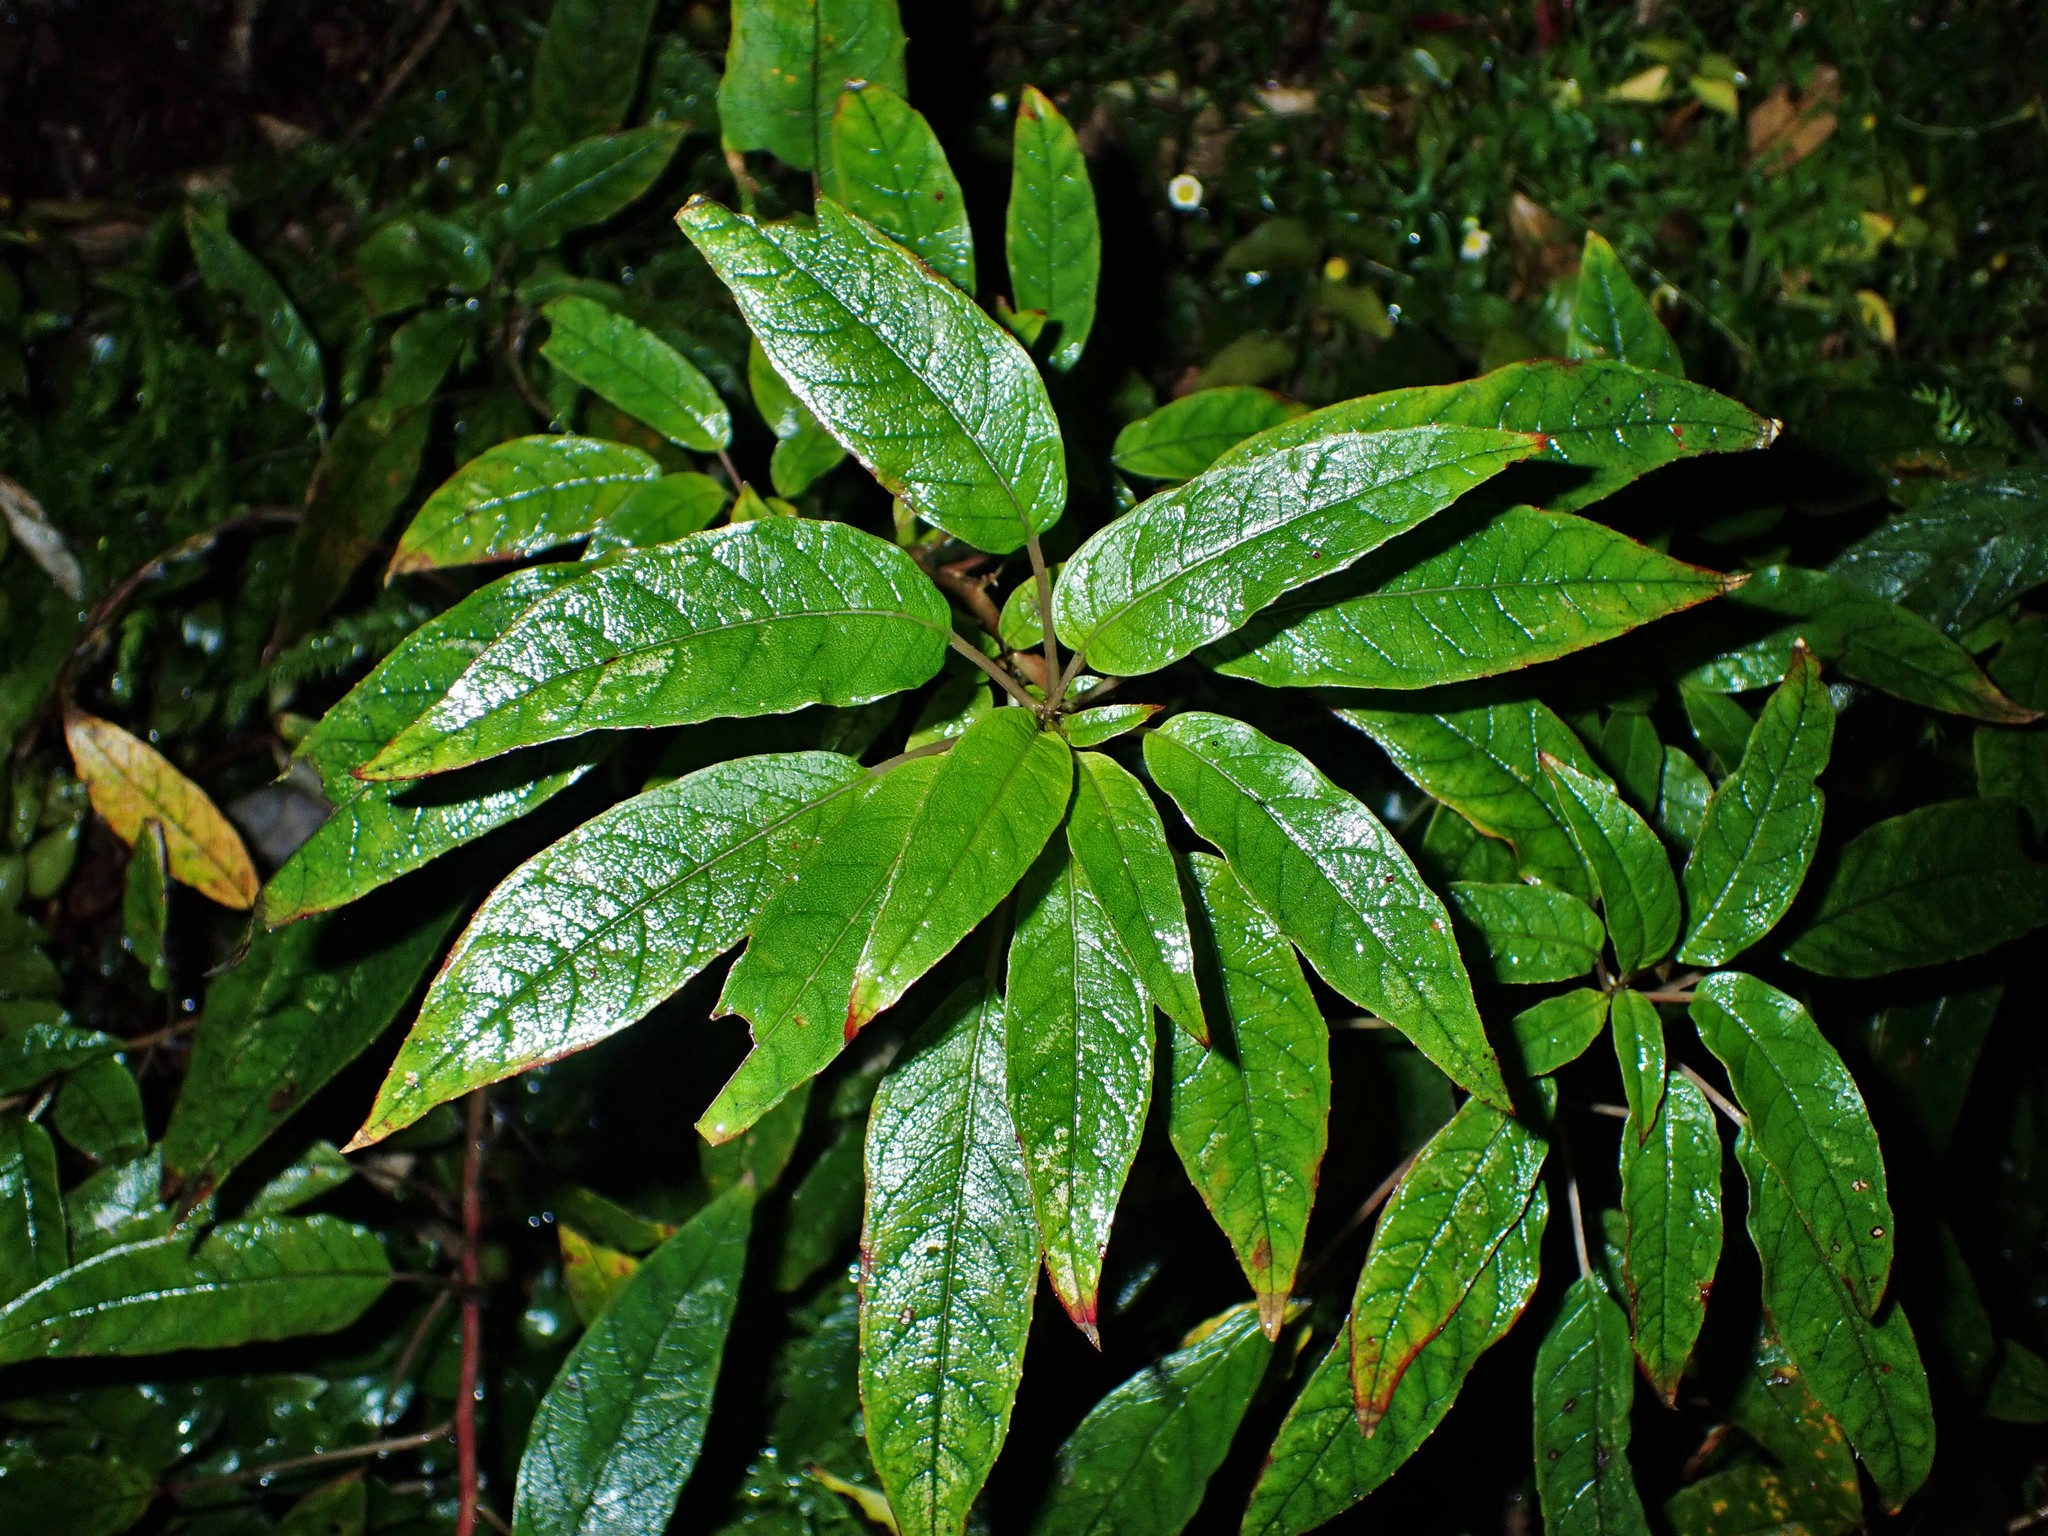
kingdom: Plantae
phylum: Tracheophyta
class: Magnoliopsida
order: Myrtales
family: Onagraceae
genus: Fuchsia
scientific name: Fuchsia excorticata
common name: Tree fuchsia
